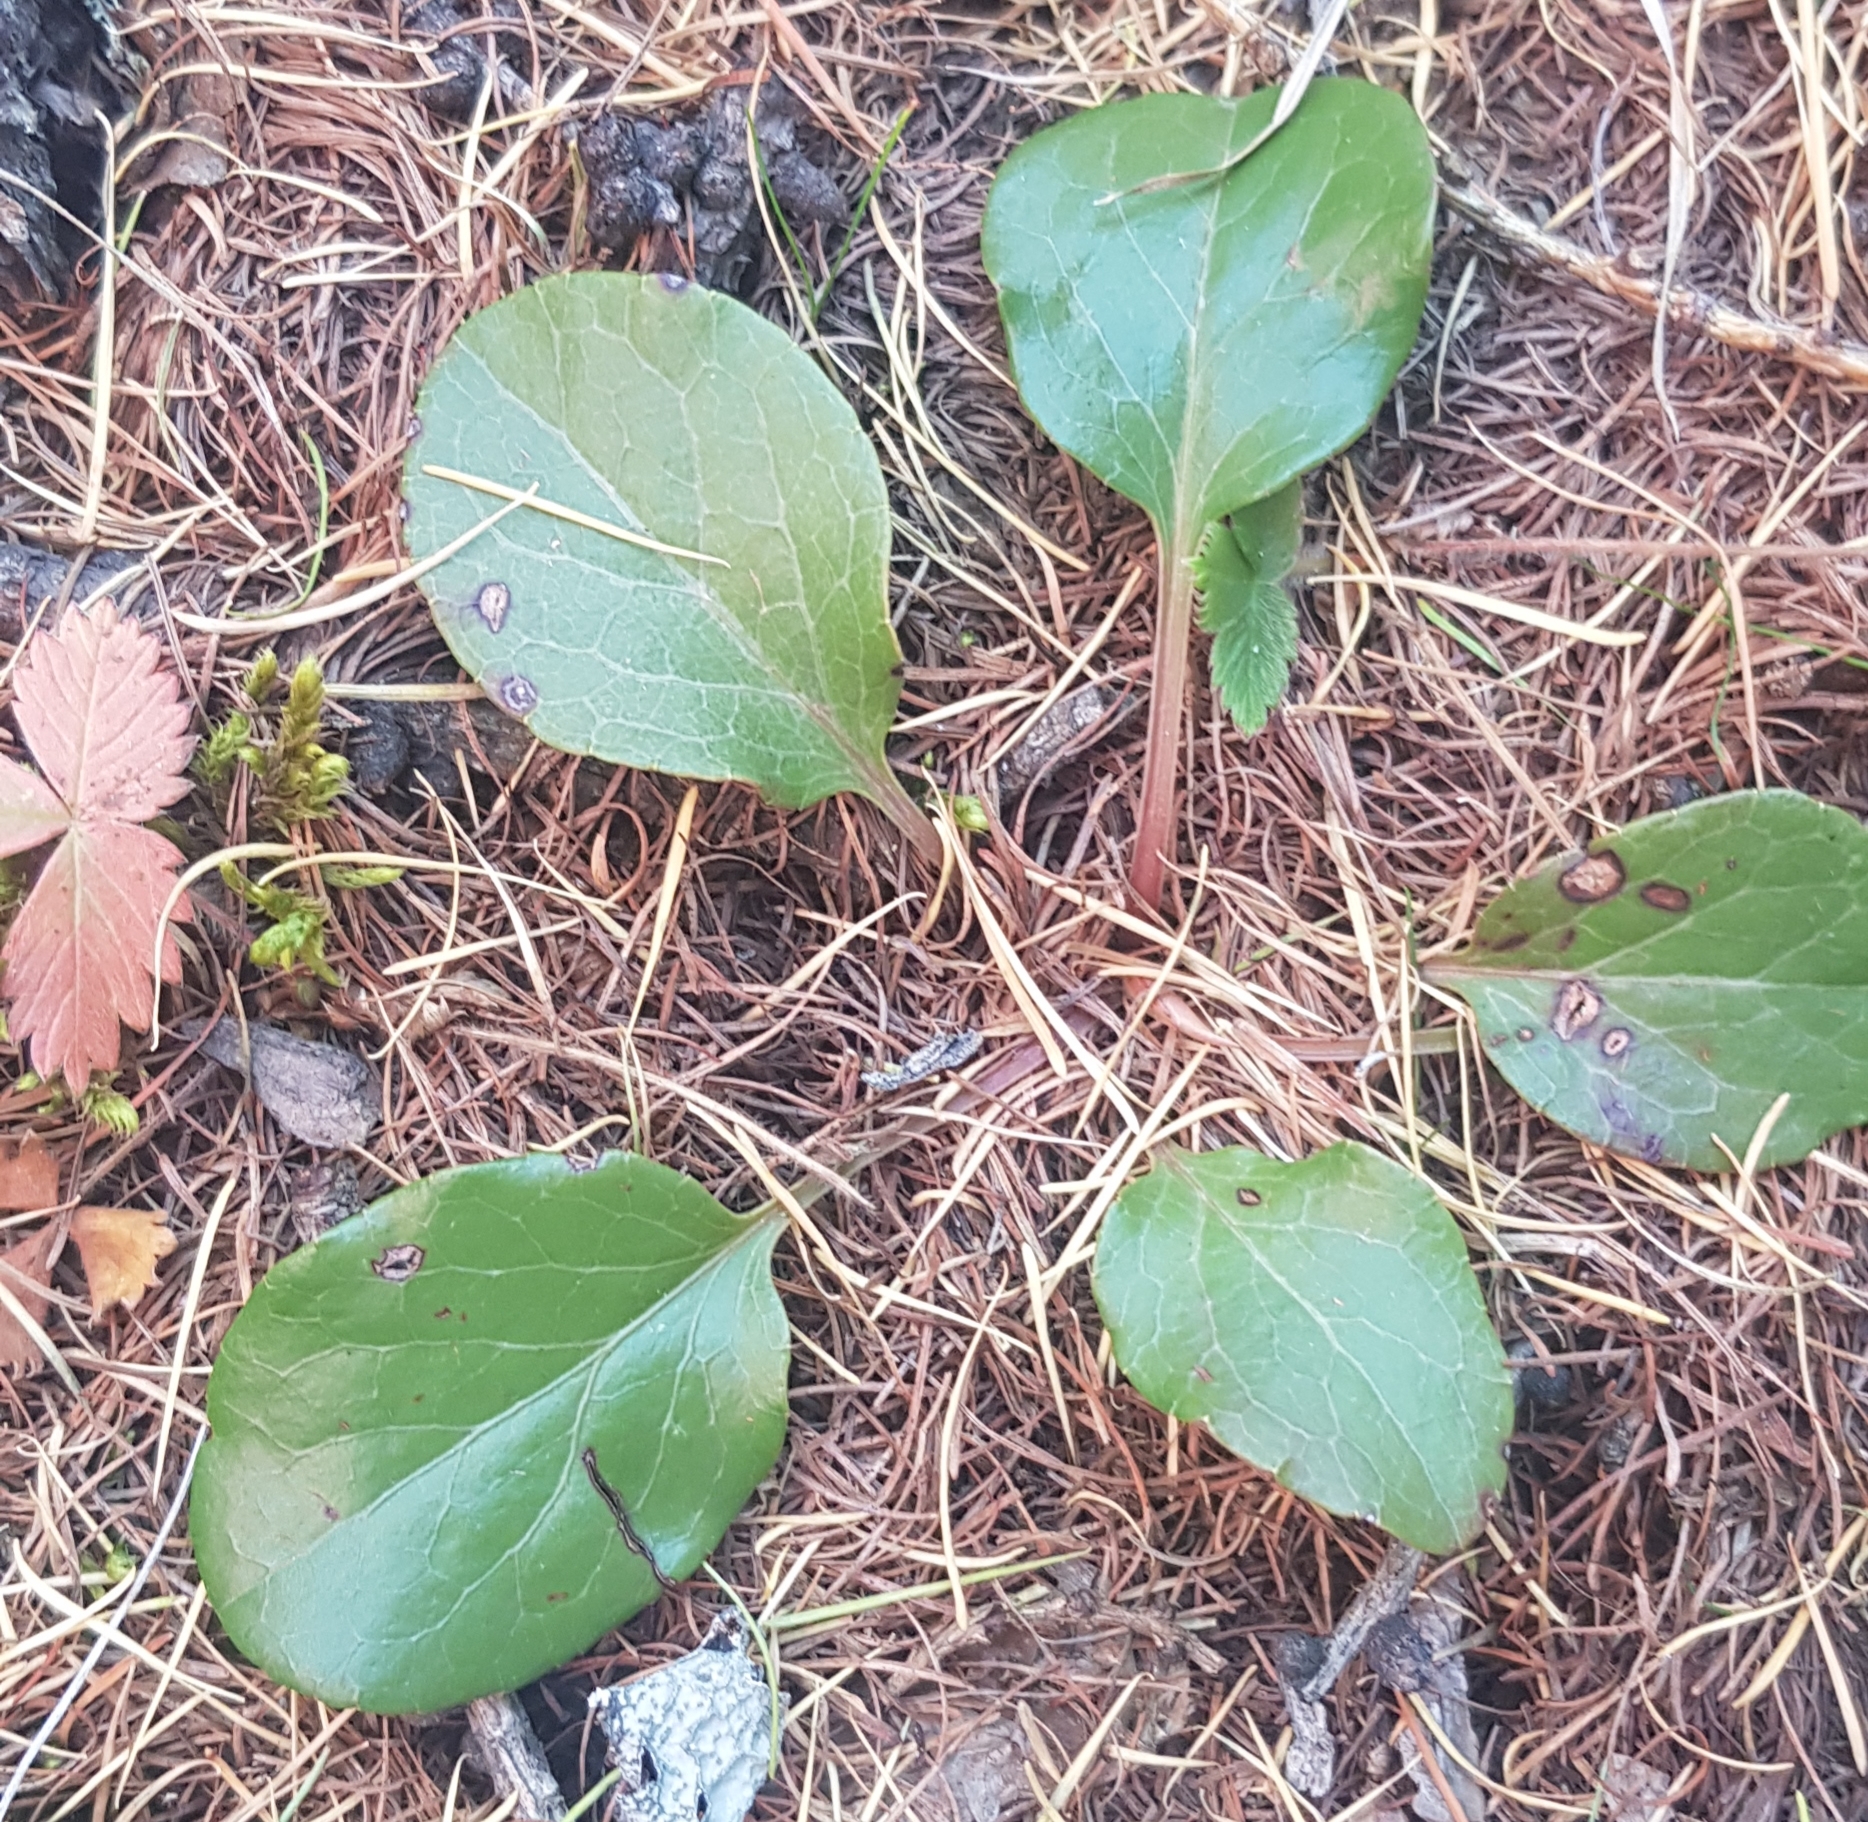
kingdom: Plantae
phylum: Tracheophyta
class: Magnoliopsida
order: Ericales
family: Ericaceae
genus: Pyrola
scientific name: Pyrola asarifolia
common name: Bog wintergreen
